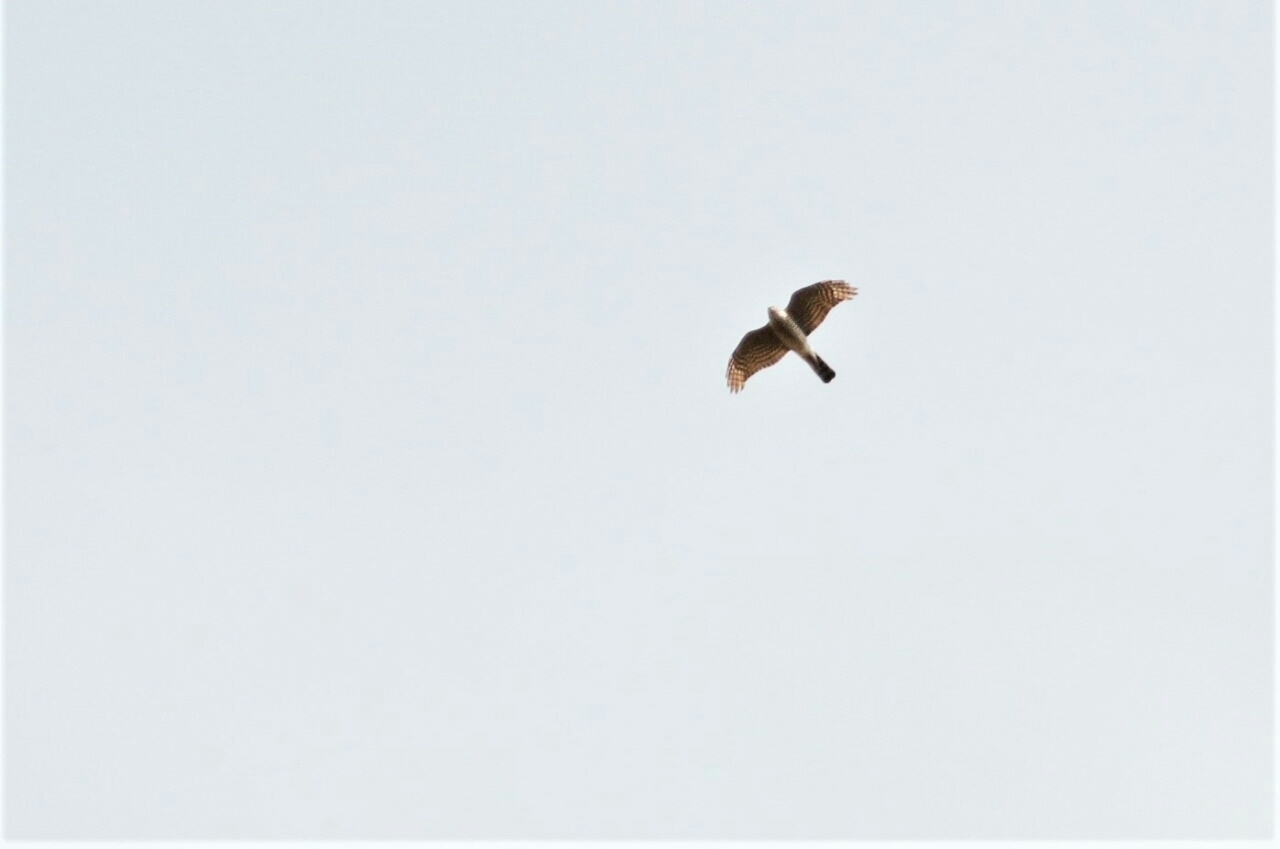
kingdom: Animalia
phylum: Chordata
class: Aves
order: Accipitriformes
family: Accipitridae
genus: Accipiter
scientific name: Accipiter nisus
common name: Eurasian sparrowhawk
